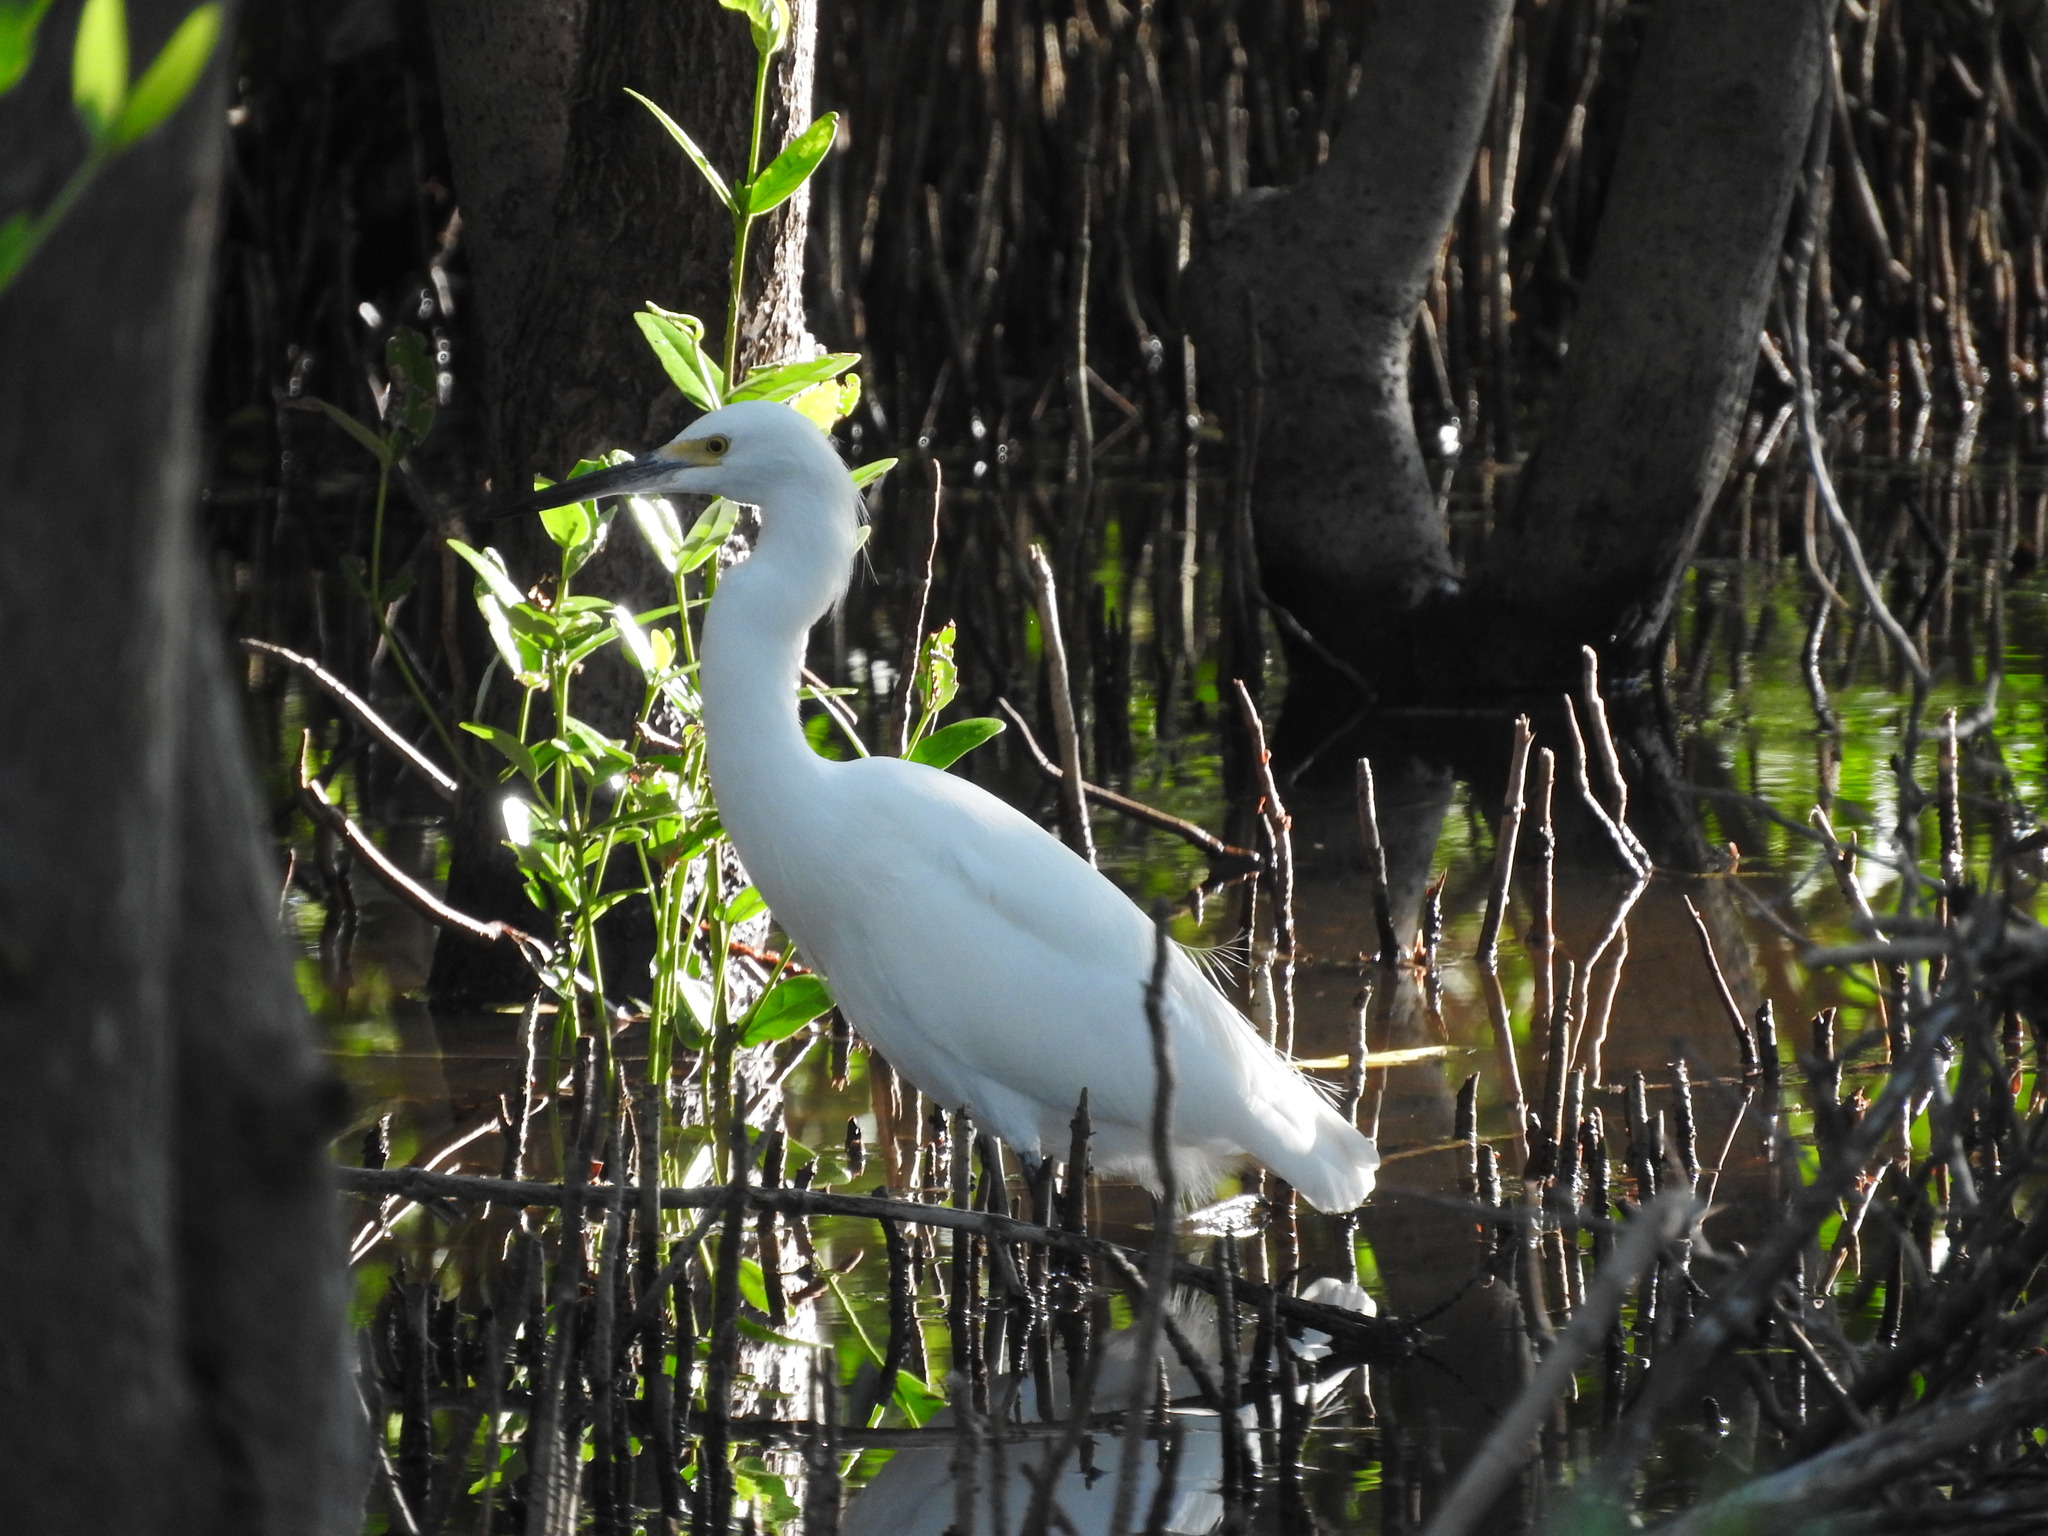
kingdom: Animalia
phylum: Chordata
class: Aves
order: Pelecaniformes
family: Ardeidae
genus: Egretta
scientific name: Egretta thula
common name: Snowy egret
